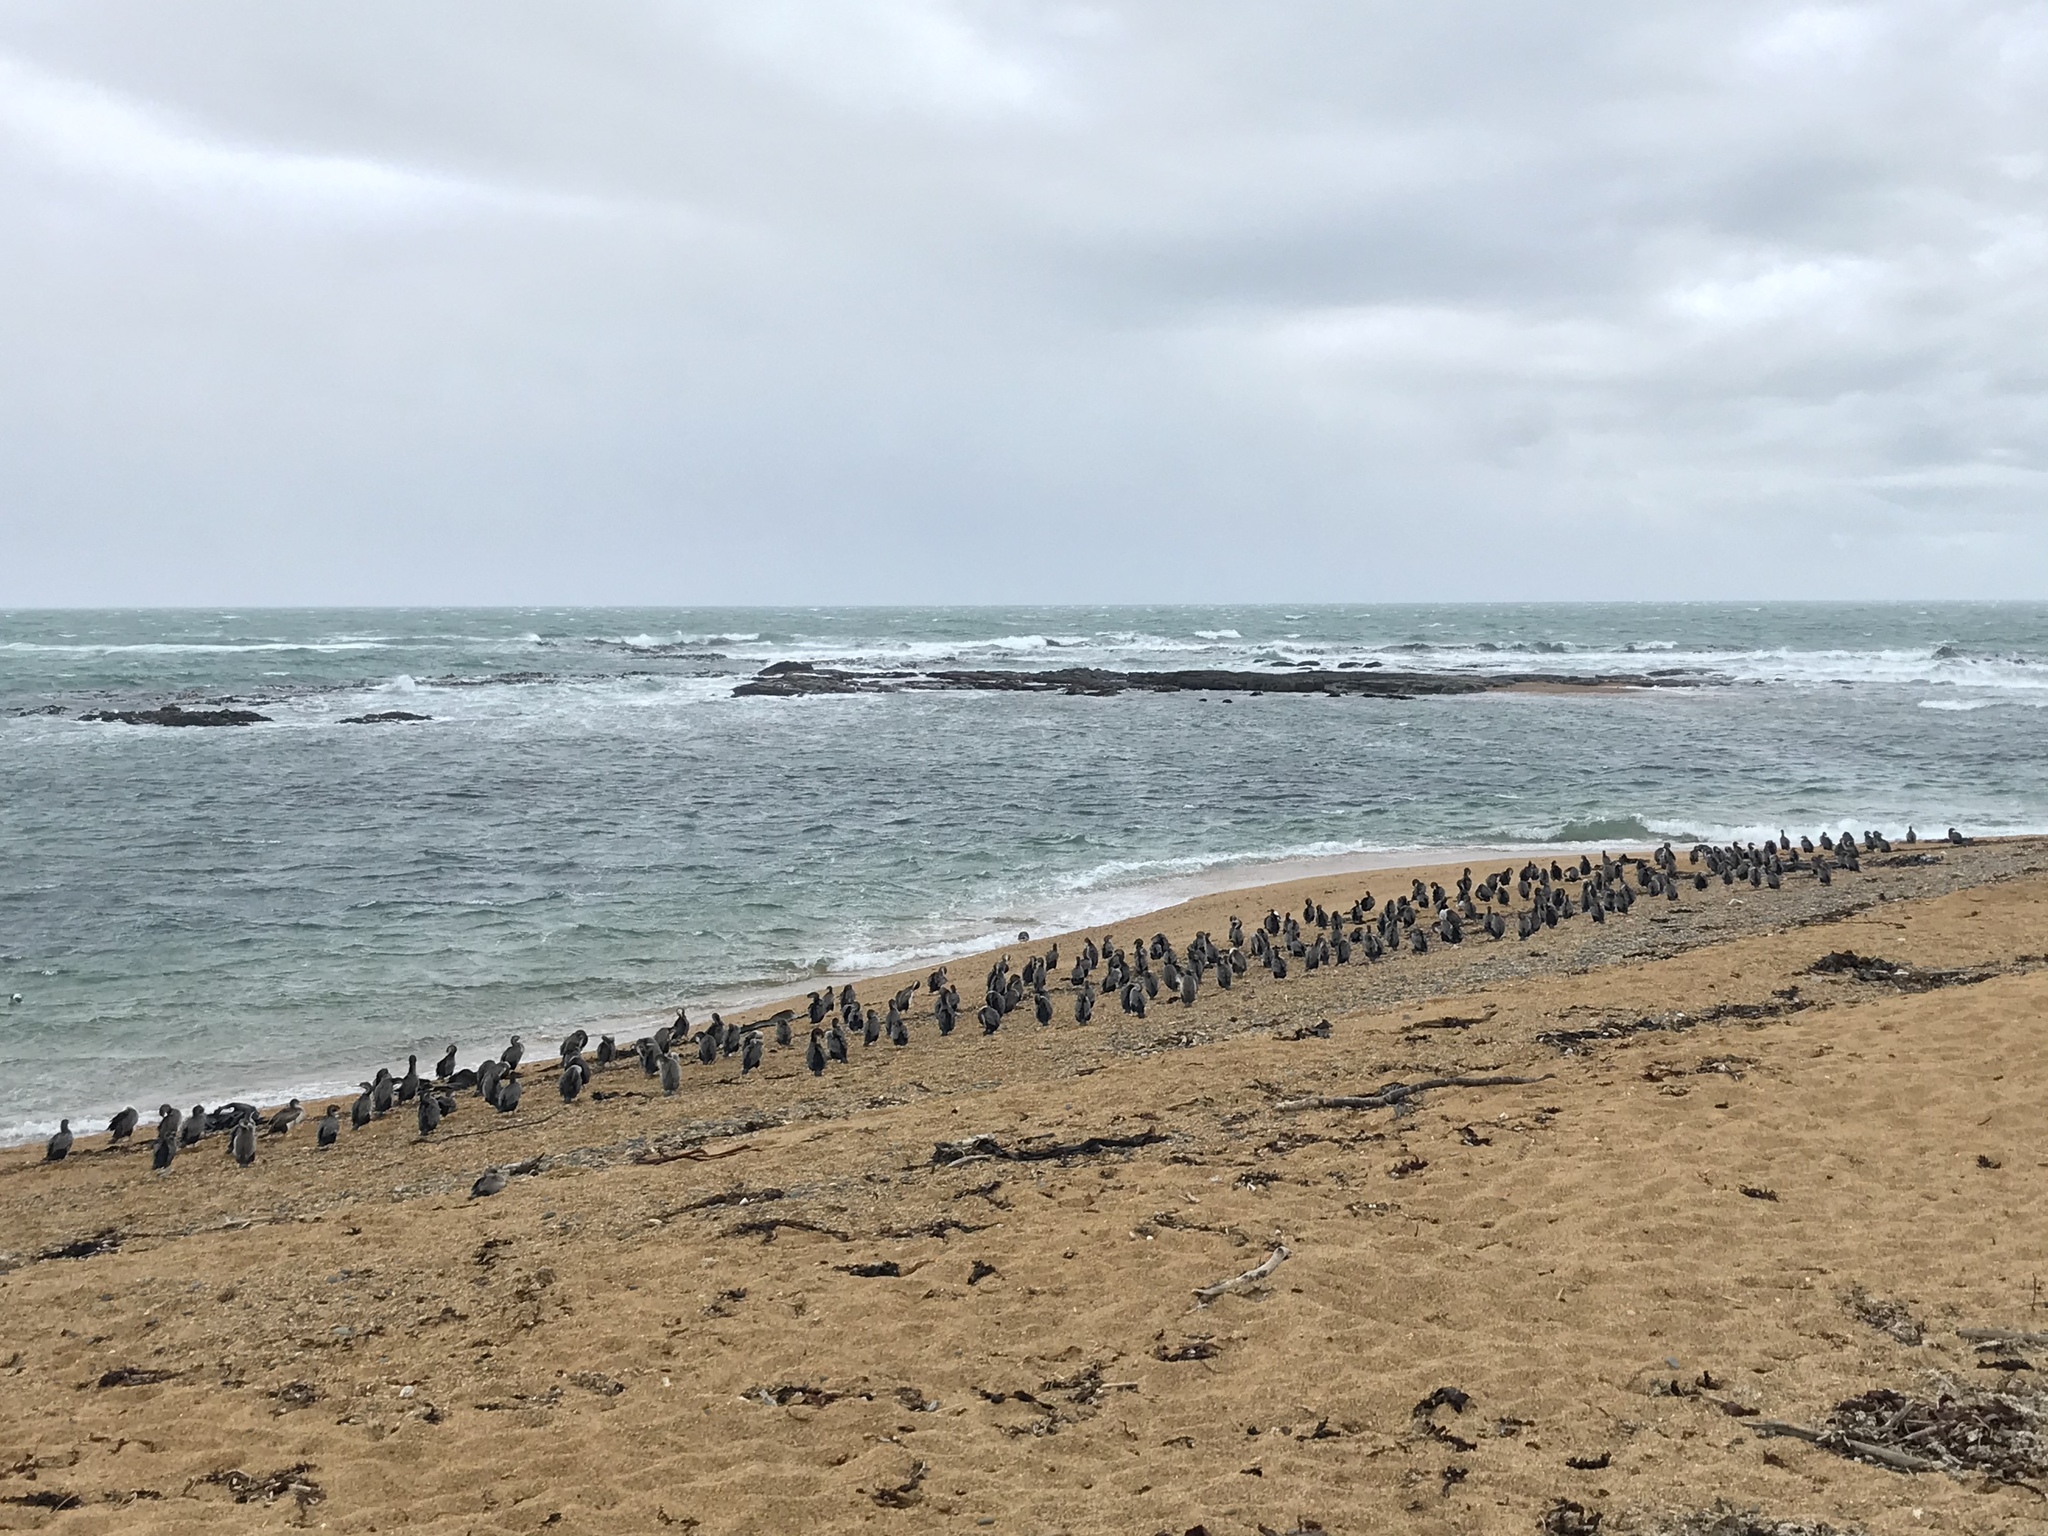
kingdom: Animalia
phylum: Chordata
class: Aves
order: Suliformes
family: Phalacrocoracidae
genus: Phalacrocorax
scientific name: Phalacrocorax punctatus
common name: Spotted shag
